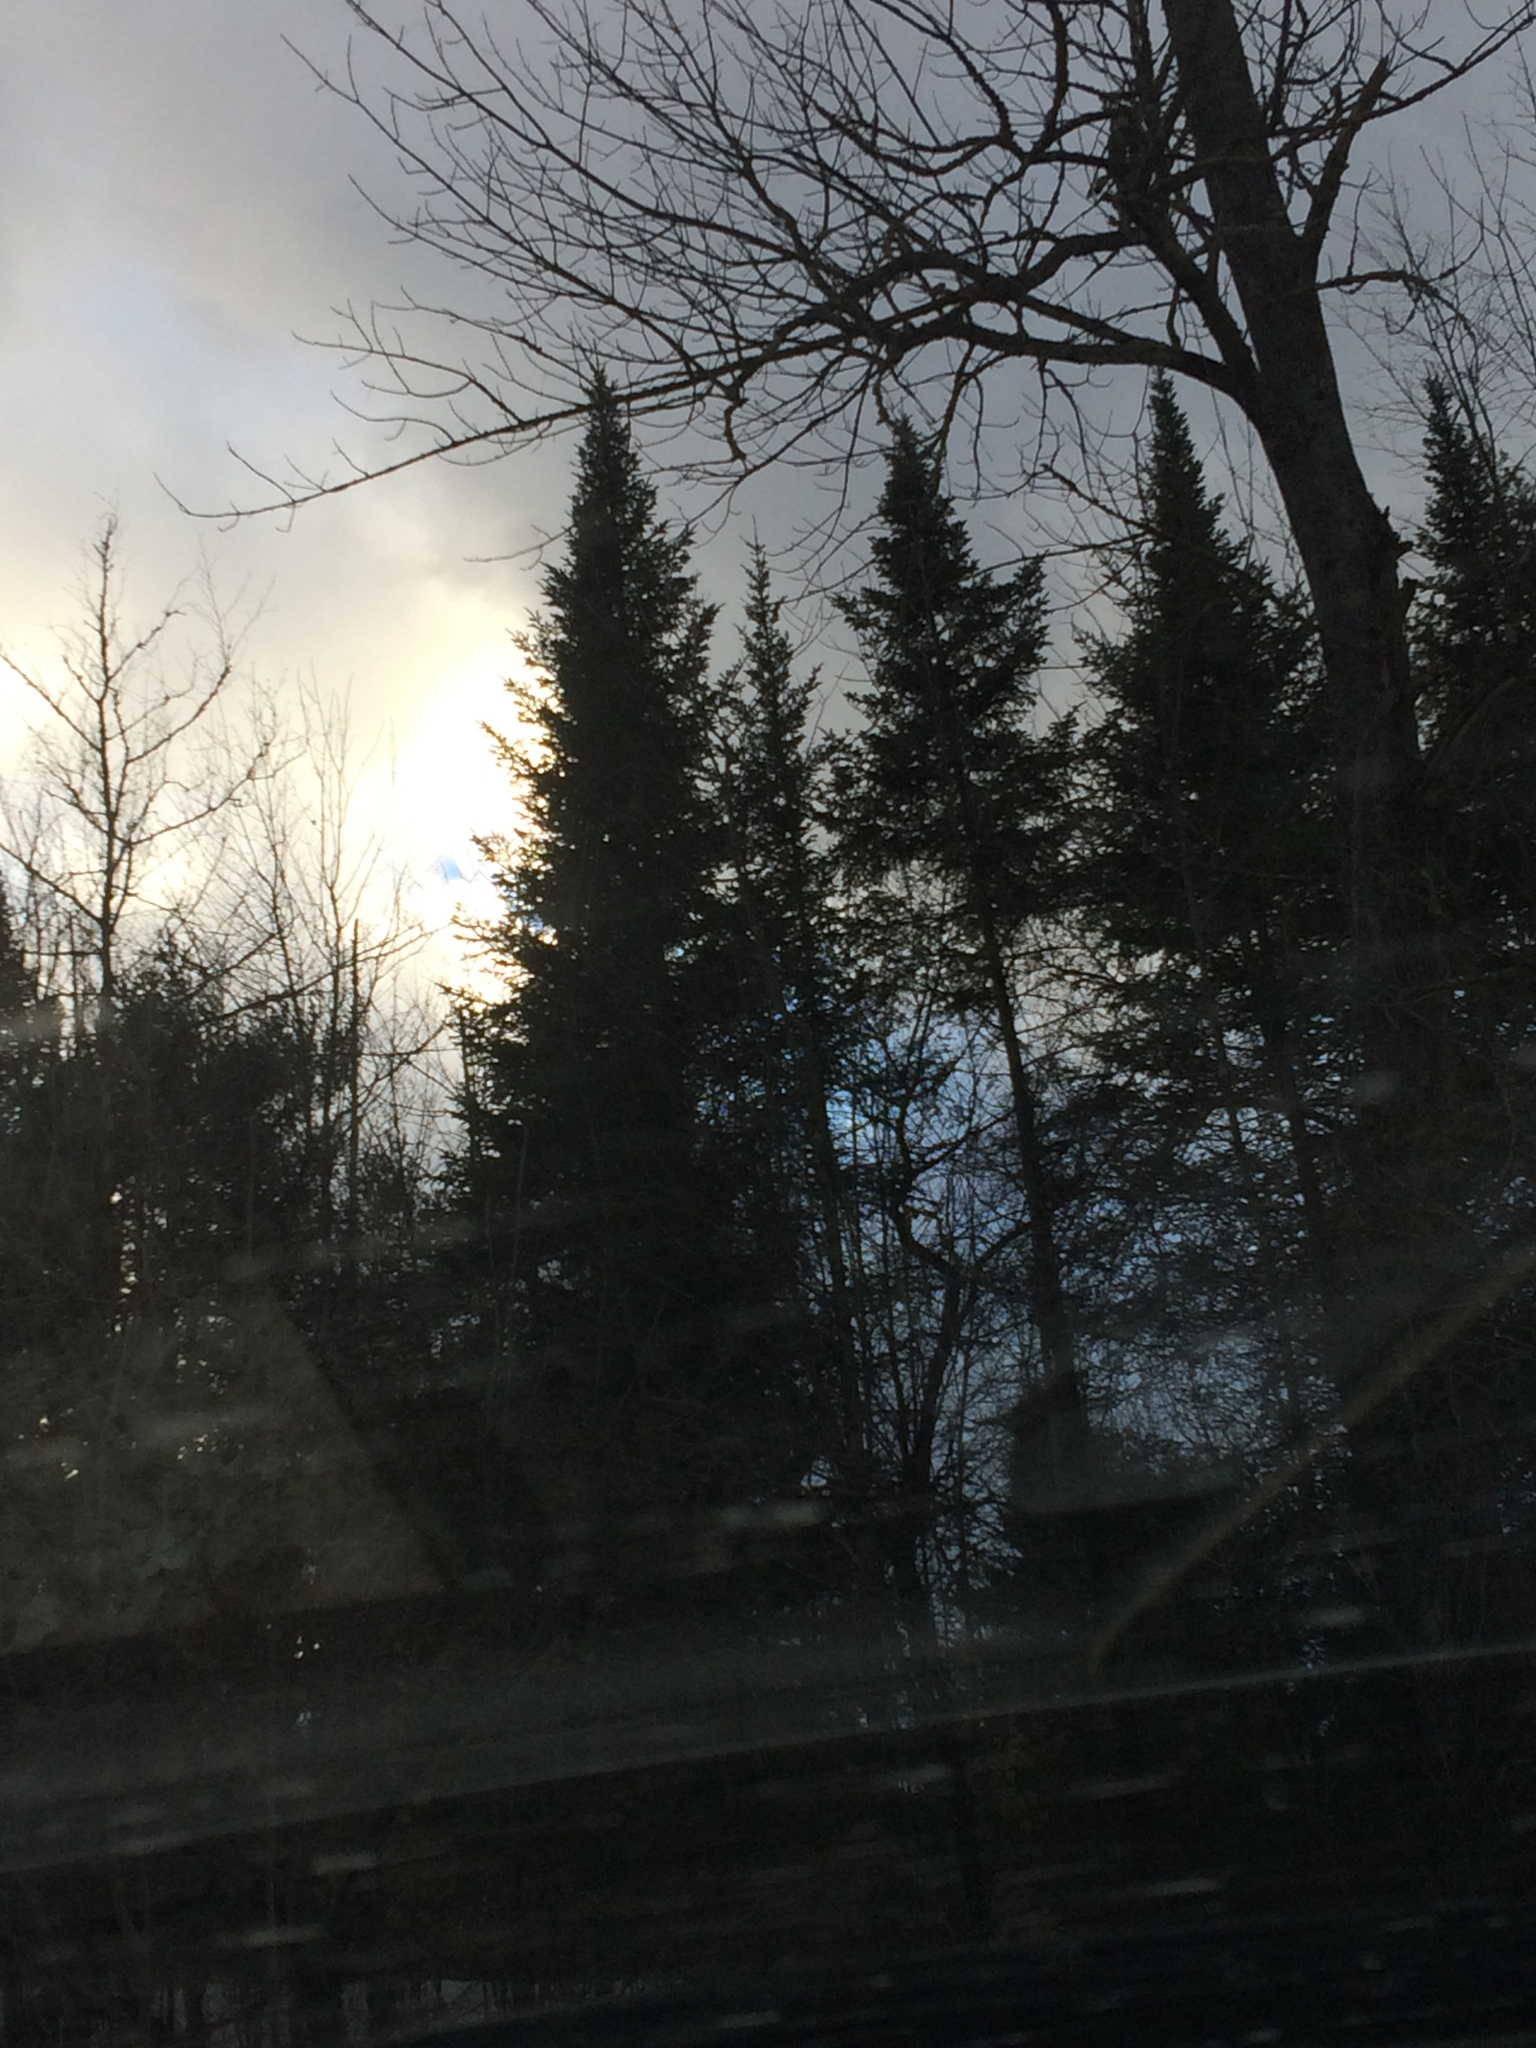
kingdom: Plantae
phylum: Tracheophyta
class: Pinopsida
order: Pinales
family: Pinaceae
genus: Abies
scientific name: Abies balsamea
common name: Balsam fir
